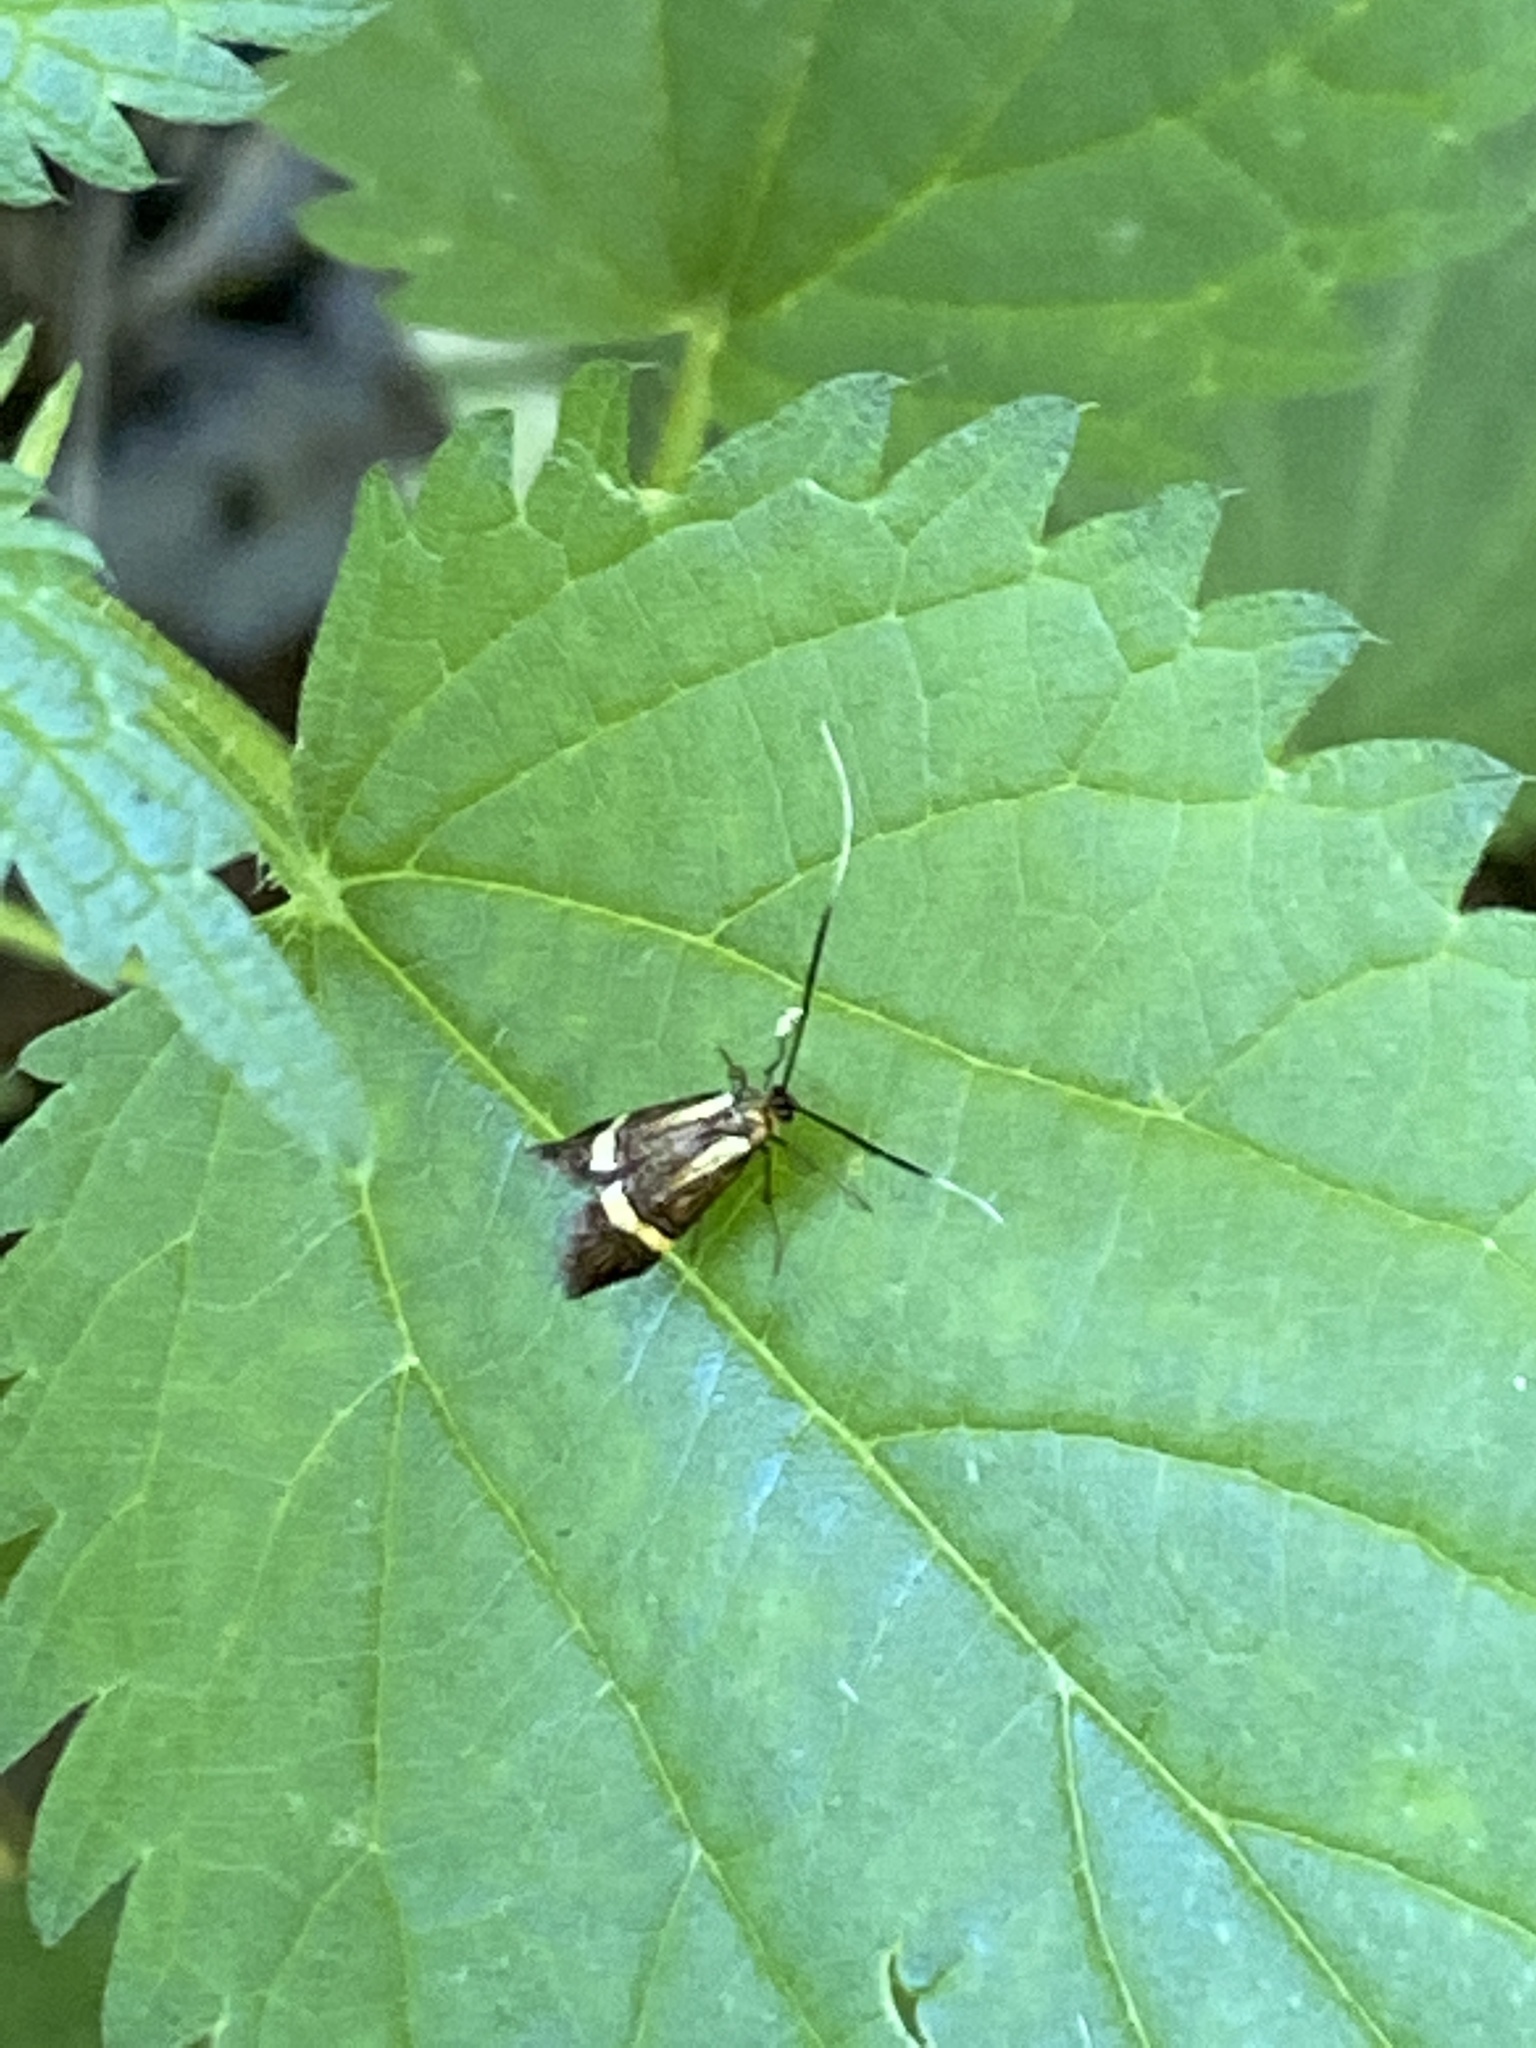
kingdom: Animalia
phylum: Arthropoda
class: Insecta
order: Lepidoptera
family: Adelidae
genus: Nemophora
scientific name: Nemophora degeerella
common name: Yellow-barred long-horn
